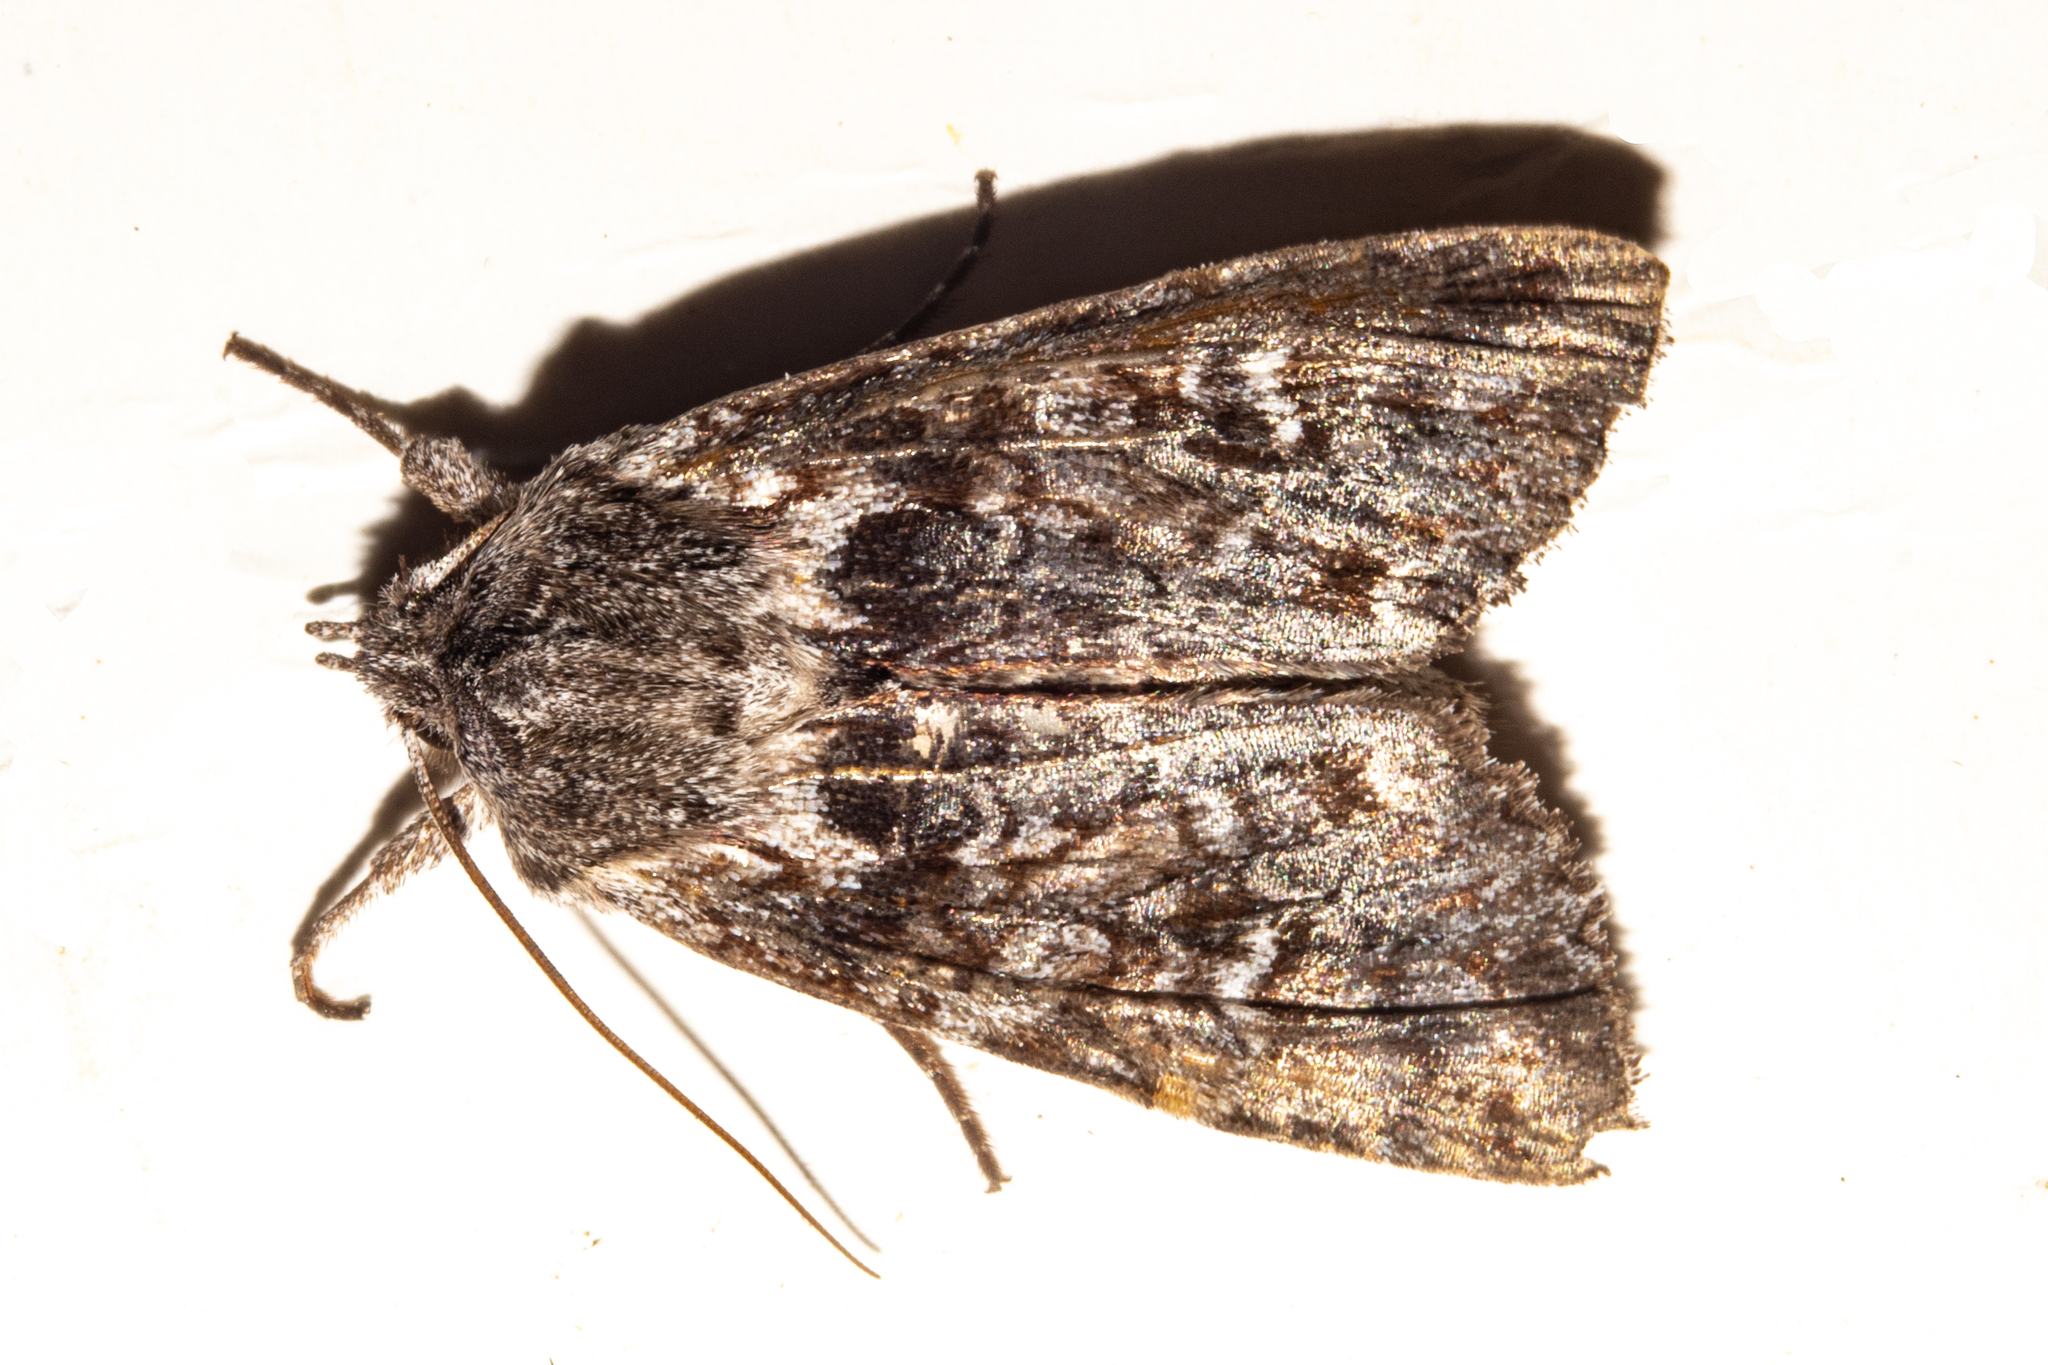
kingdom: Animalia
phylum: Arthropoda
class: Insecta
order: Lepidoptera
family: Noctuidae
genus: Physetica
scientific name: Physetica longstaffii
